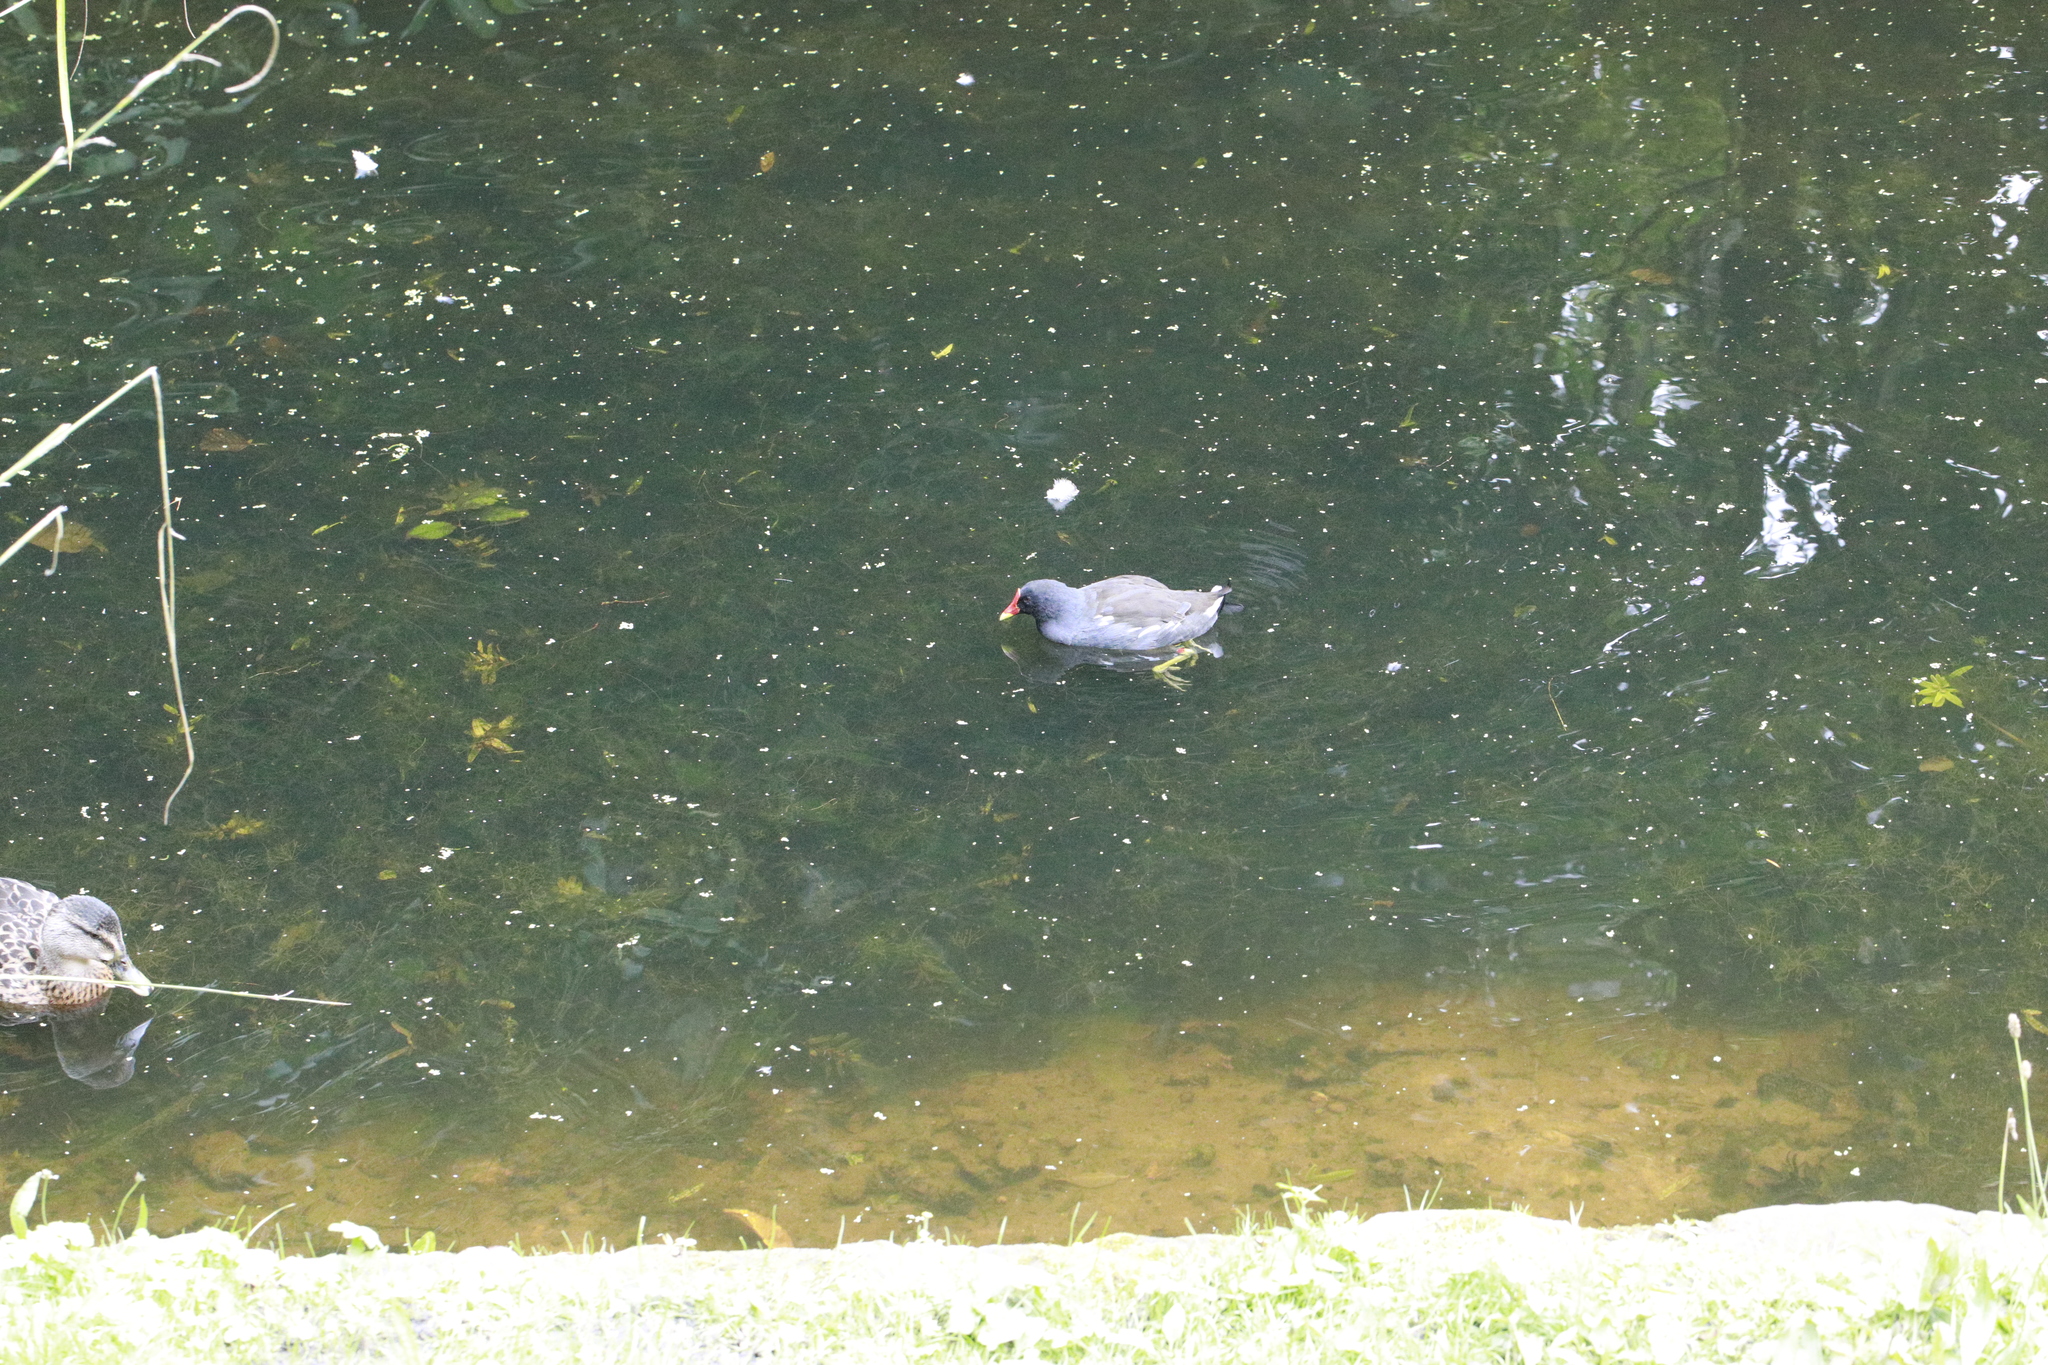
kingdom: Animalia
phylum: Chordata
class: Aves
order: Gruiformes
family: Rallidae
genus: Gallinula
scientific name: Gallinula chloropus
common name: Common moorhen
